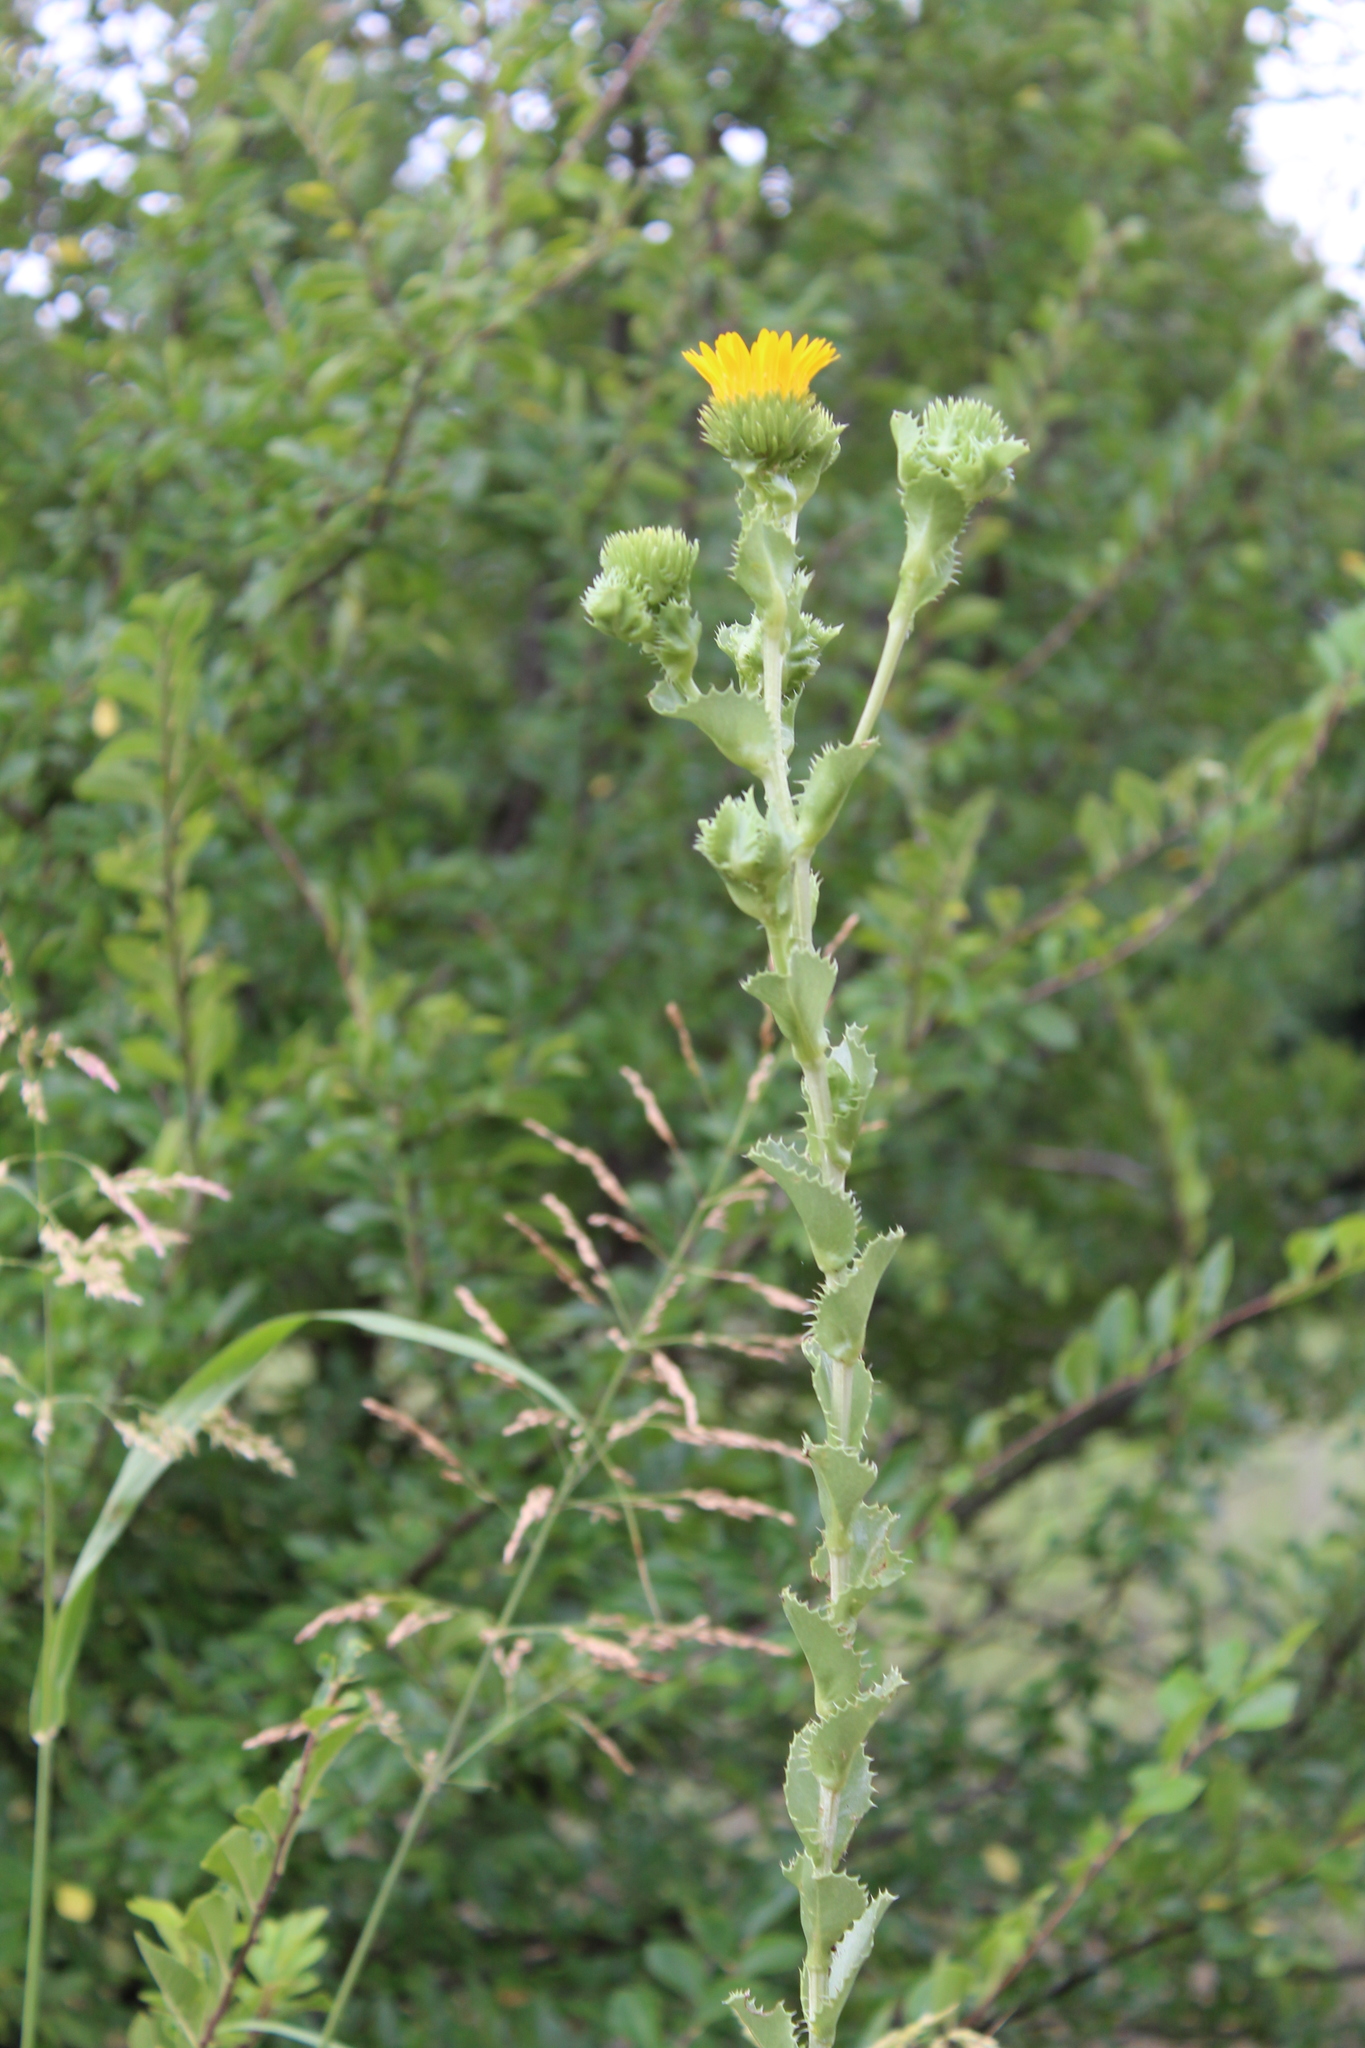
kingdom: Plantae
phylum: Tracheophyta
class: Magnoliopsida
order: Asterales
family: Asteraceae
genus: Grindelia
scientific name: Grindelia ciliata
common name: Goldenweed
